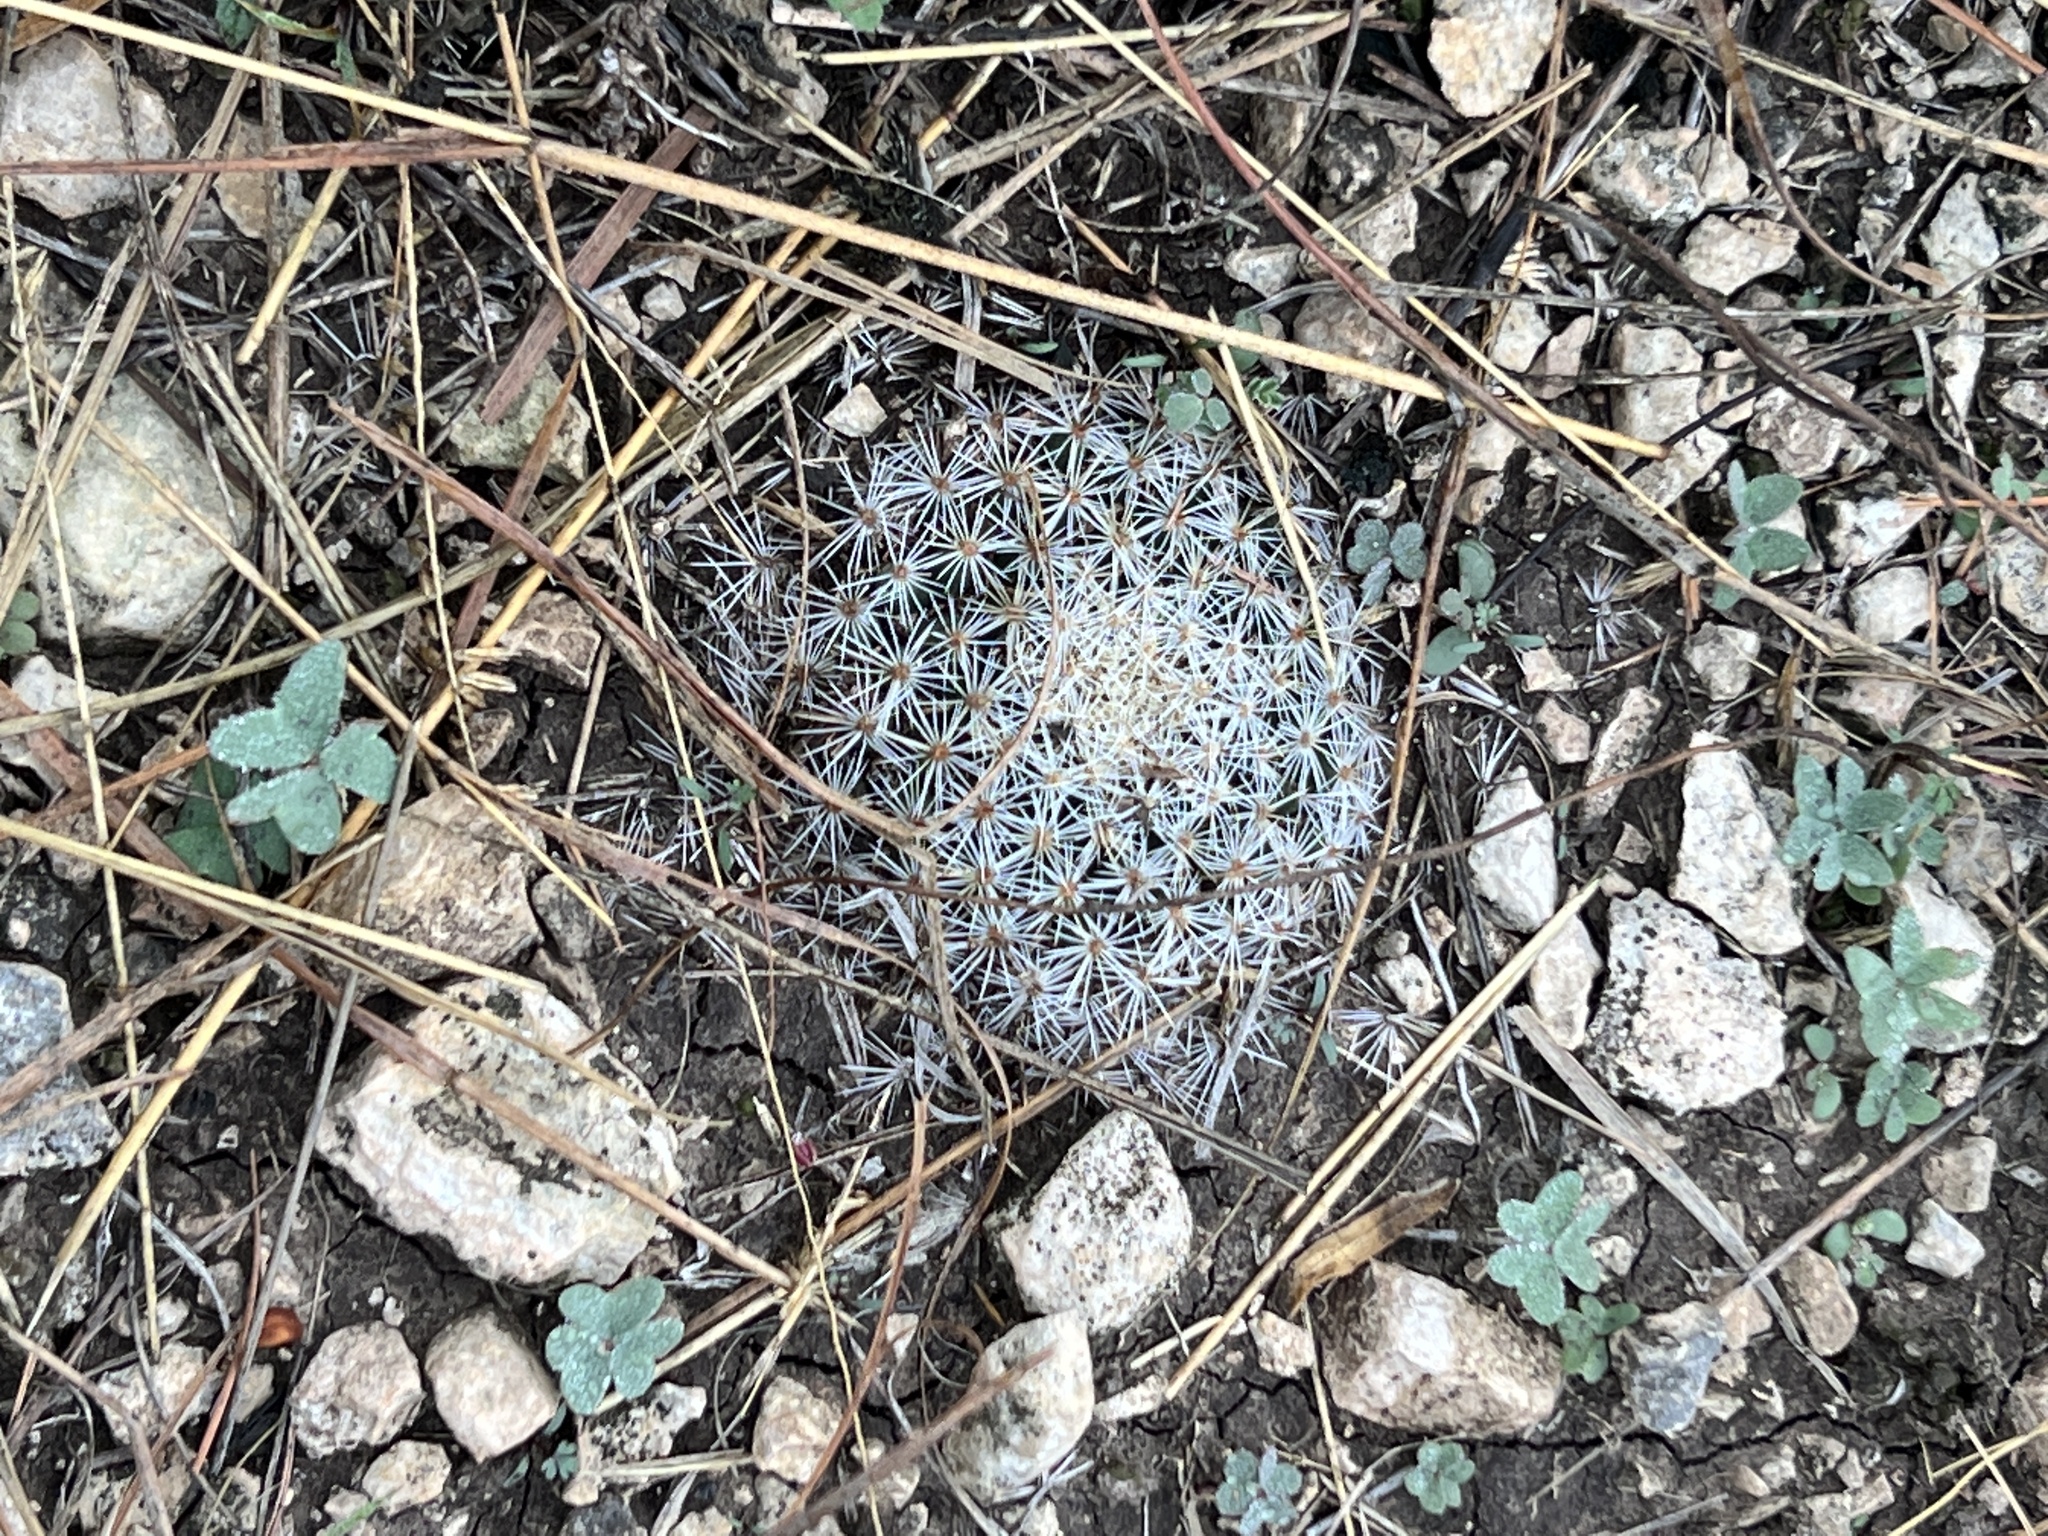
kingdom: Plantae
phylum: Tracheophyta
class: Magnoliopsida
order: Caryophyllales
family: Cactaceae
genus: Mammillaria
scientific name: Mammillaria heyderi
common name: Little nipple cactus
